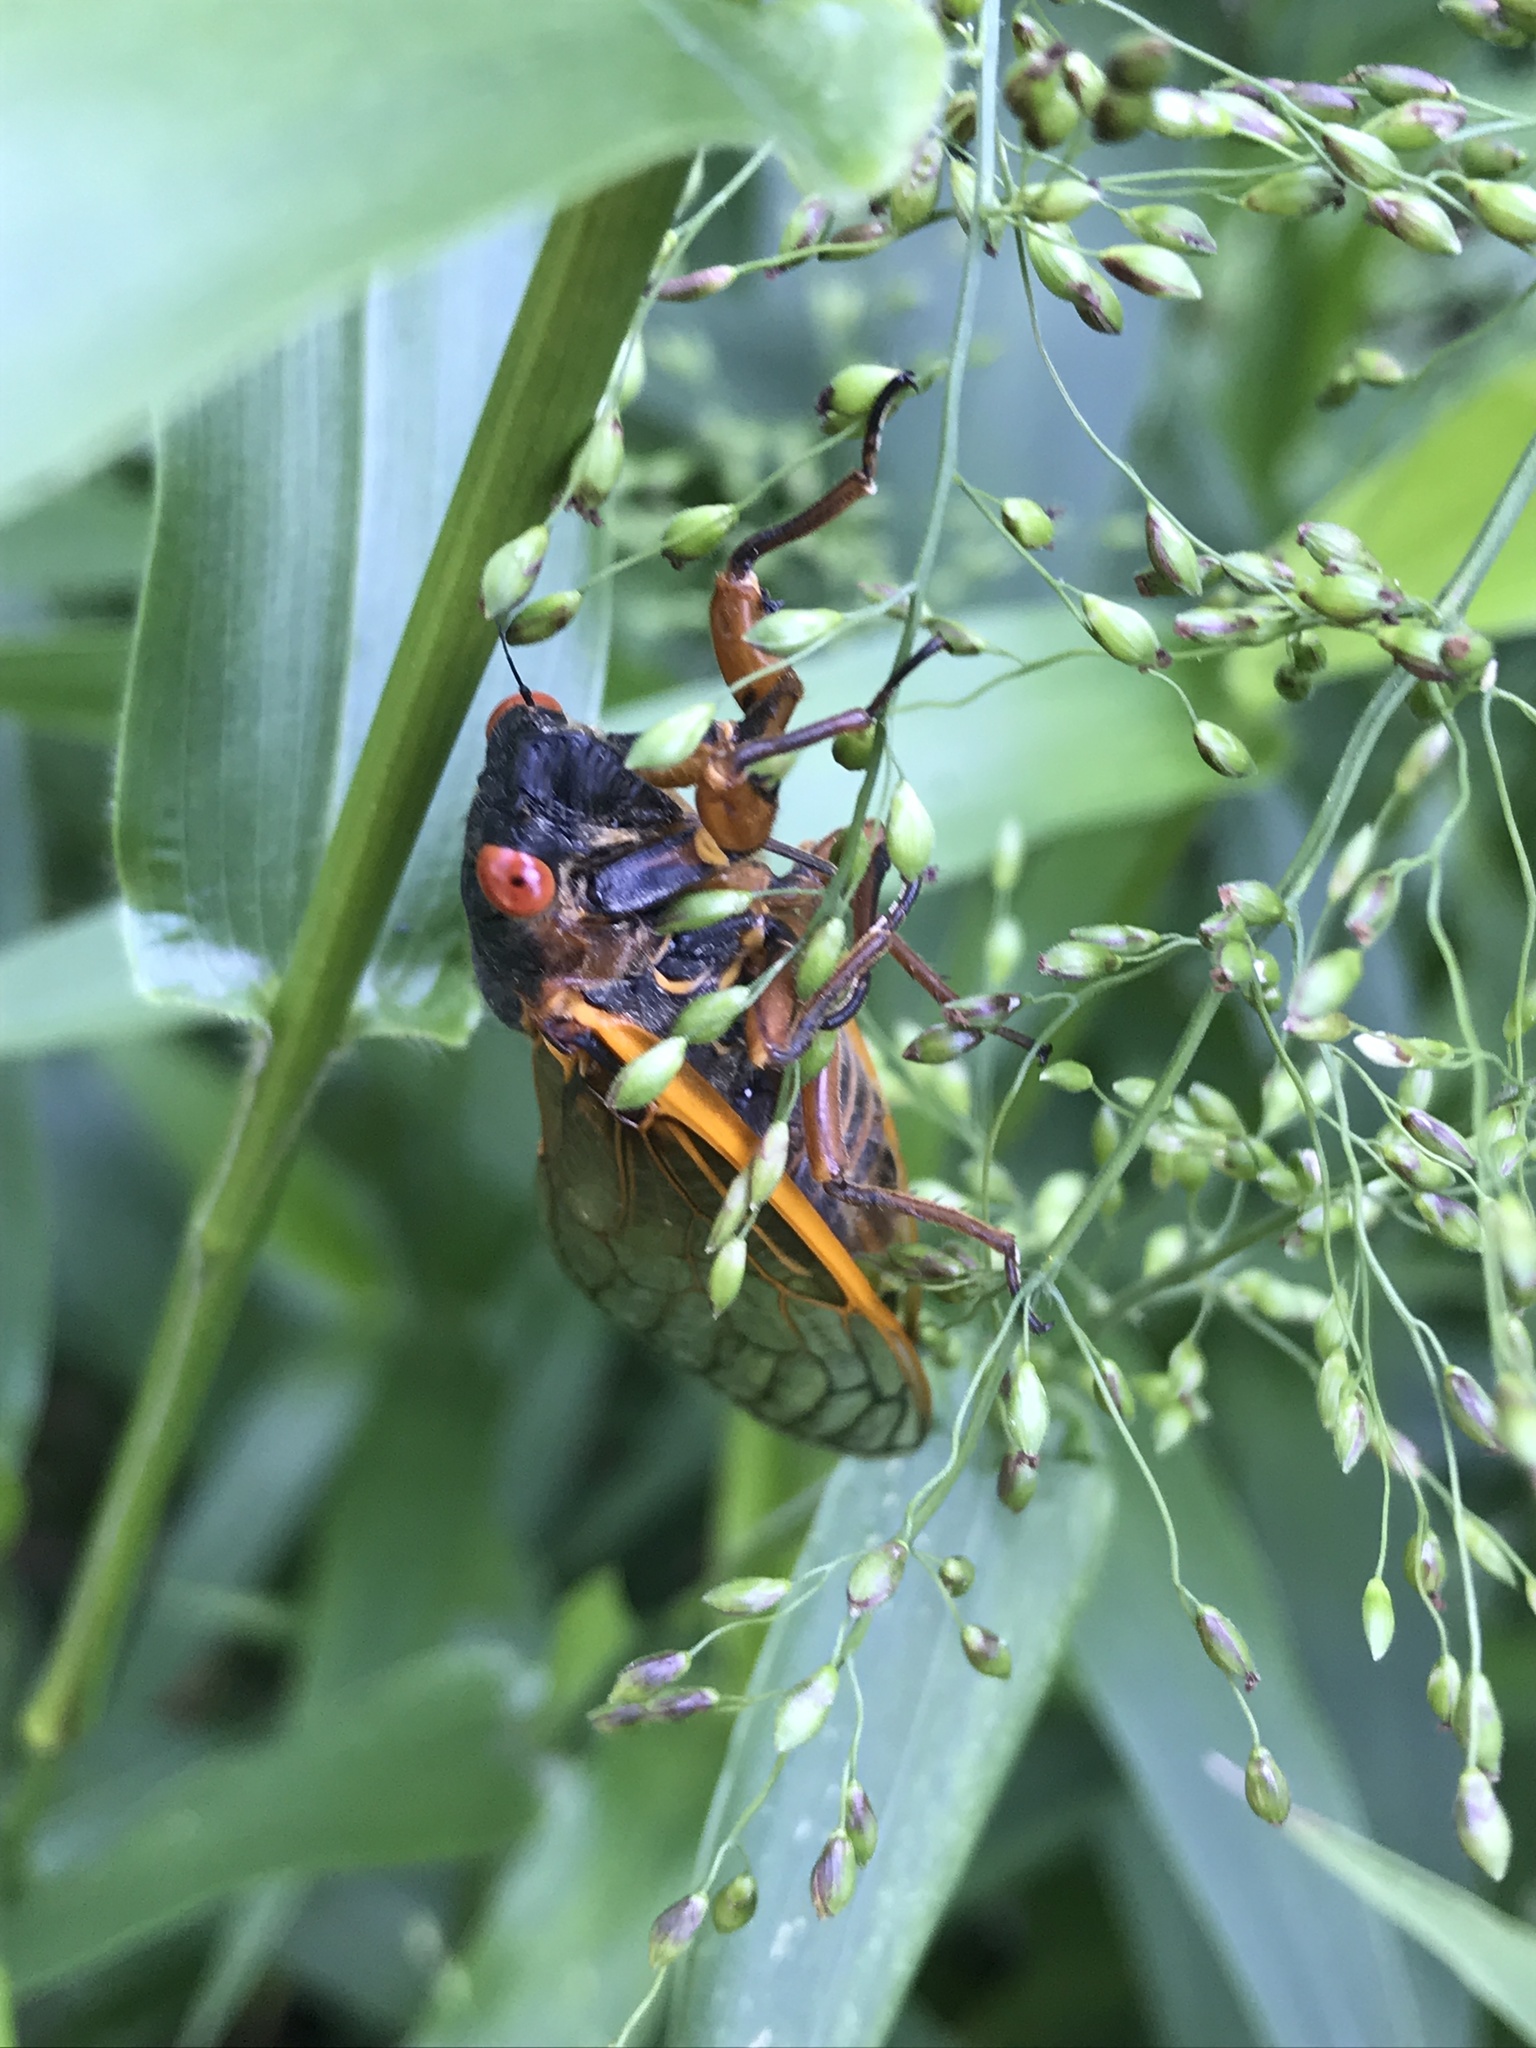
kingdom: Animalia
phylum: Arthropoda
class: Insecta
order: Hemiptera
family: Cicadidae
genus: Magicicada
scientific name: Magicicada septendecim
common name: Periodical cicada
